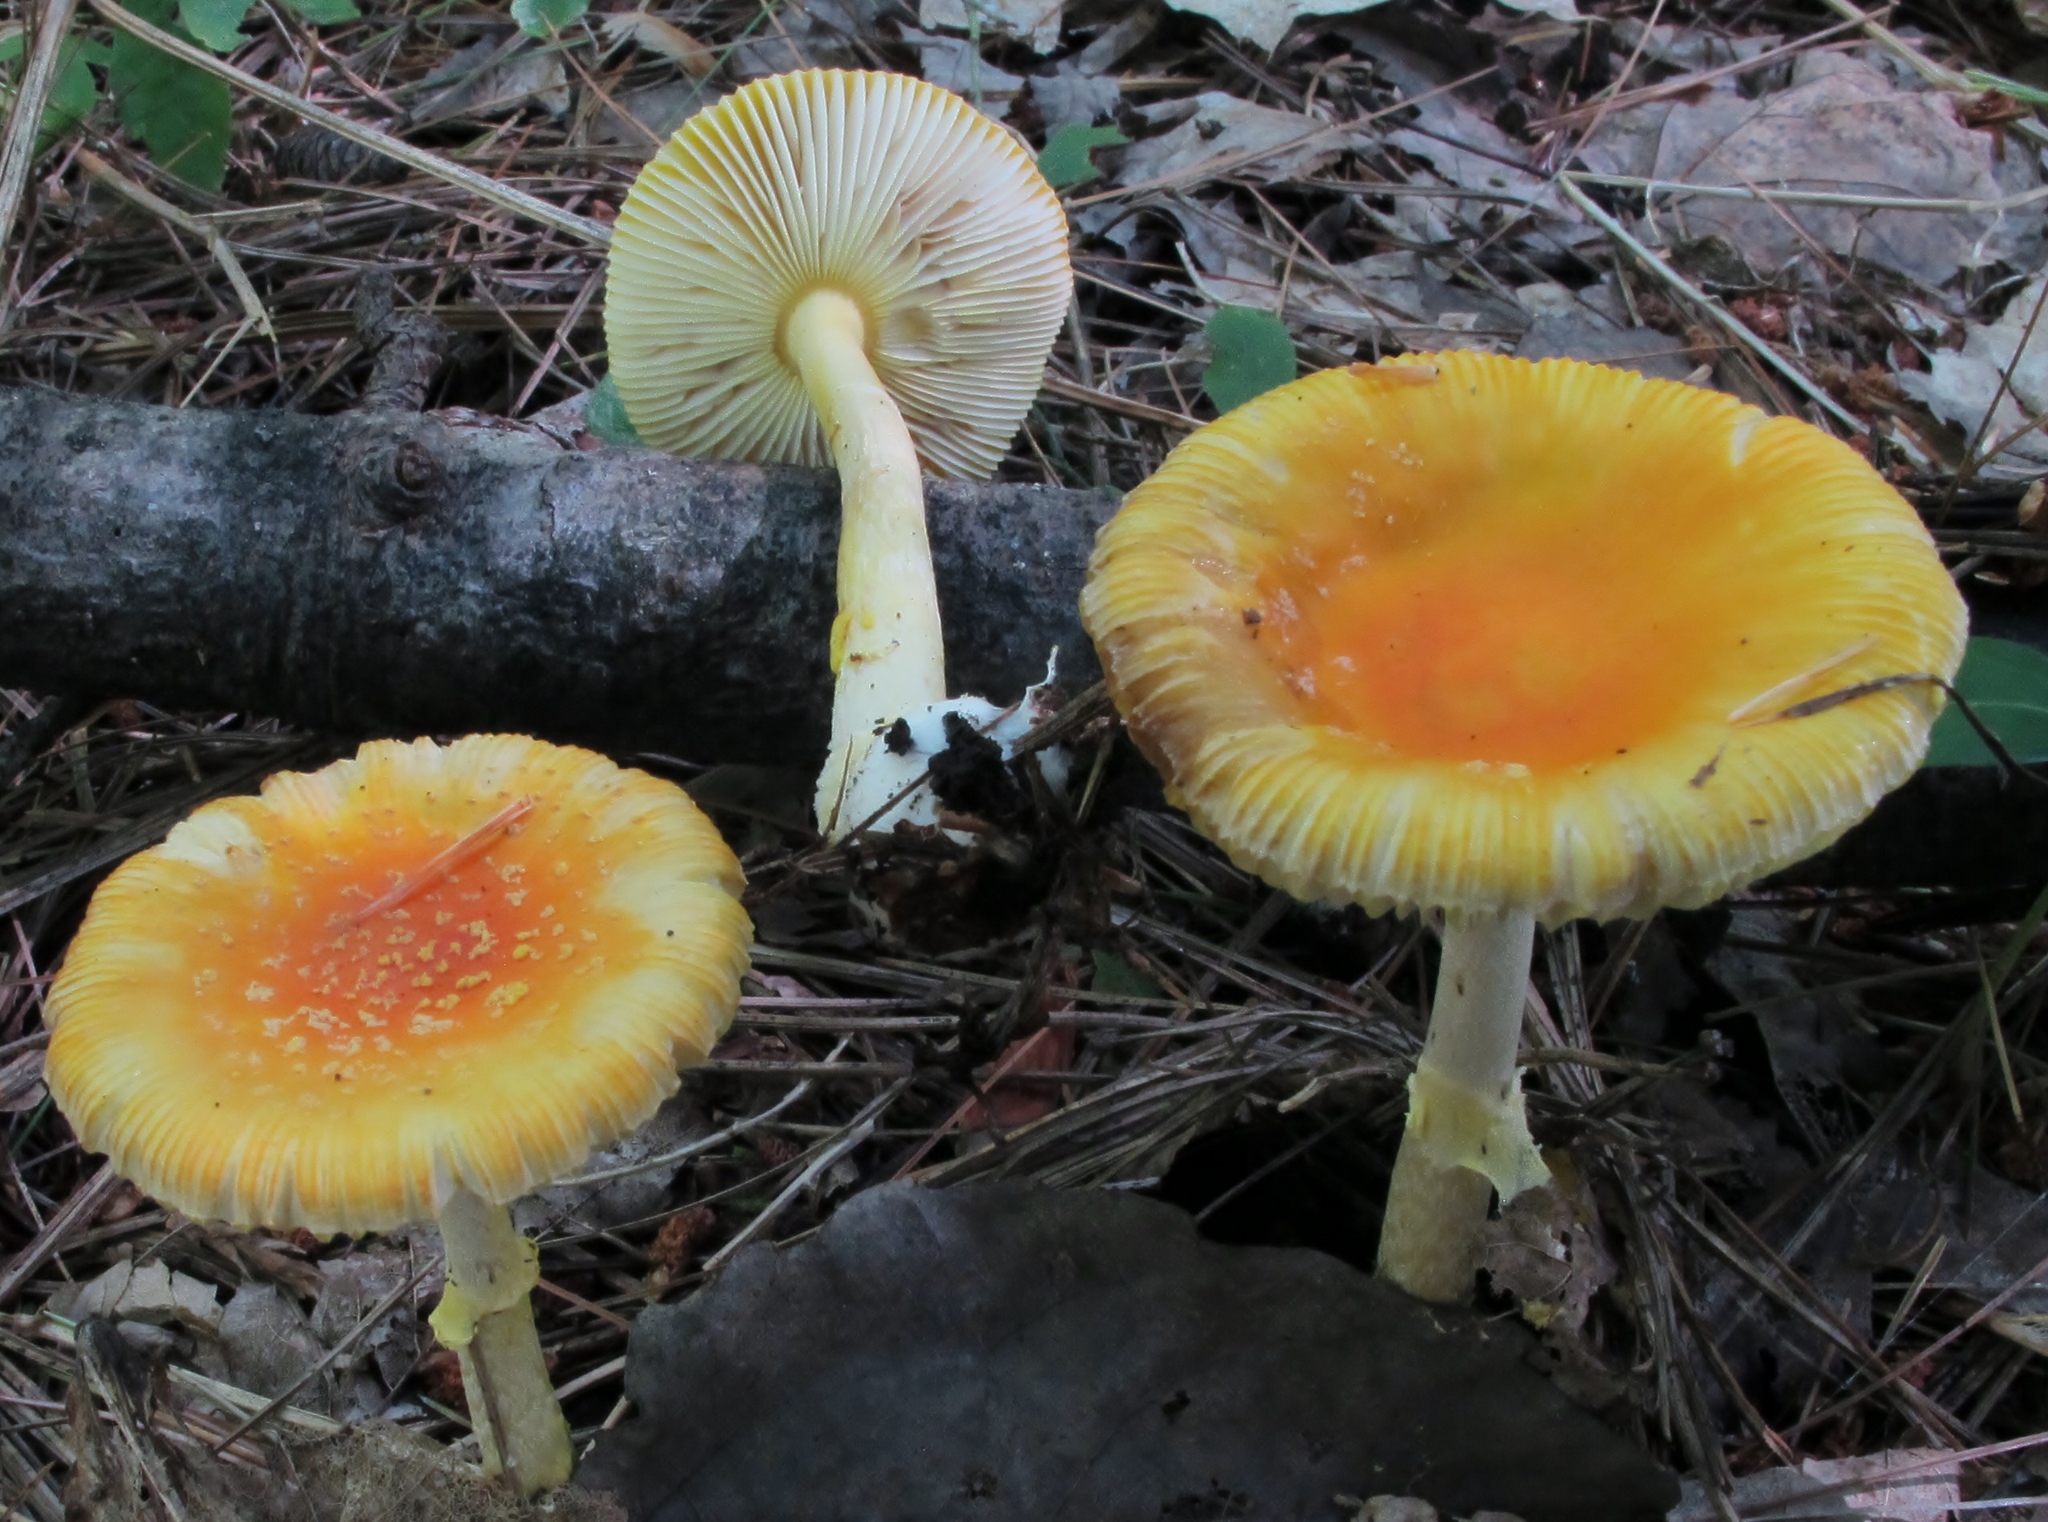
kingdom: Fungi
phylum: Basidiomycota
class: Agaricomycetes
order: Agaricales
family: Amanitaceae
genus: Amanita
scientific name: Amanita frostiana
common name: Frost's amanita
